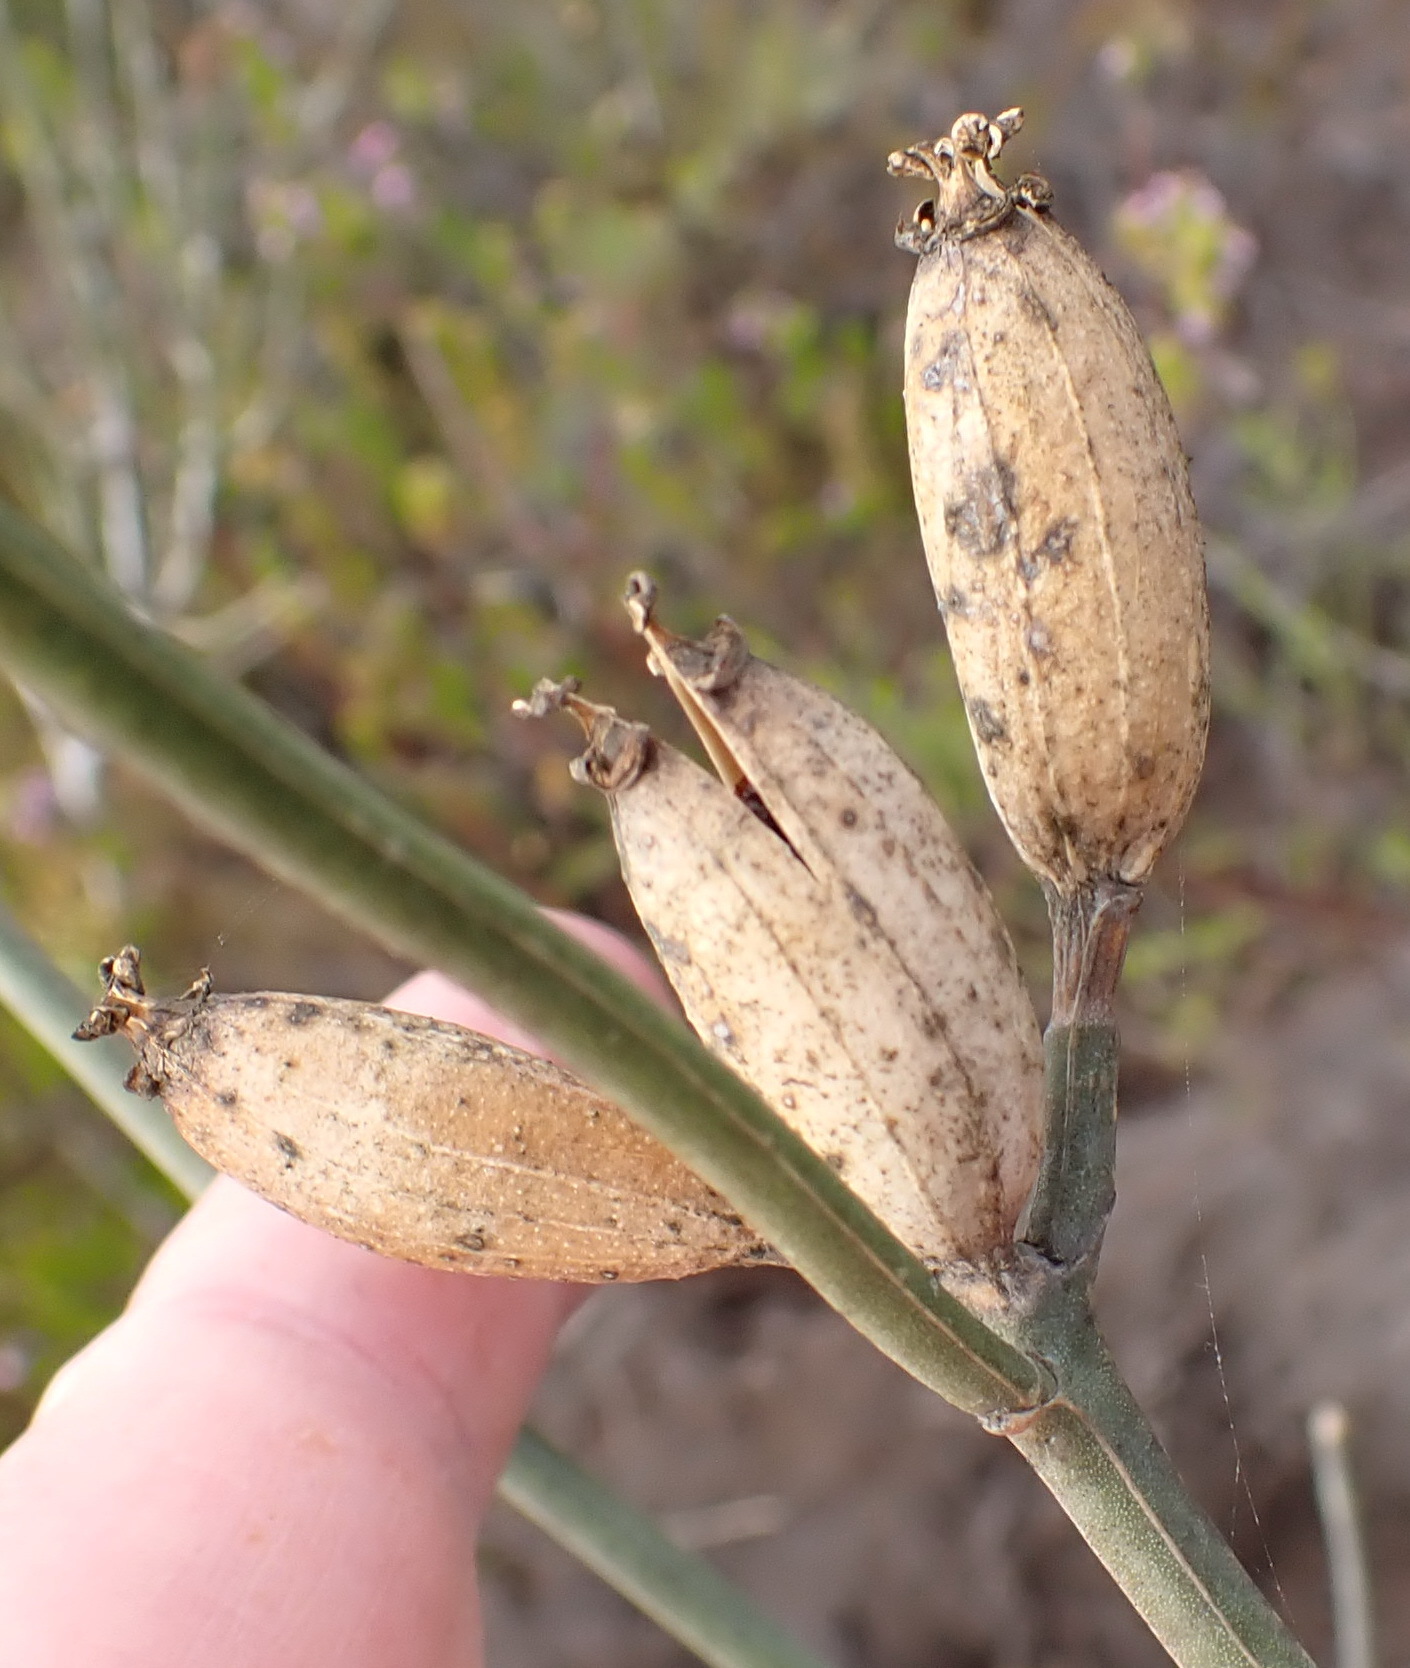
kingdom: Plantae
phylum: Tracheophyta
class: Magnoliopsida
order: Solanales
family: Montiniaceae
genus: Montinia
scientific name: Montinia caryophyllacea
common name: Wild clove-bush
